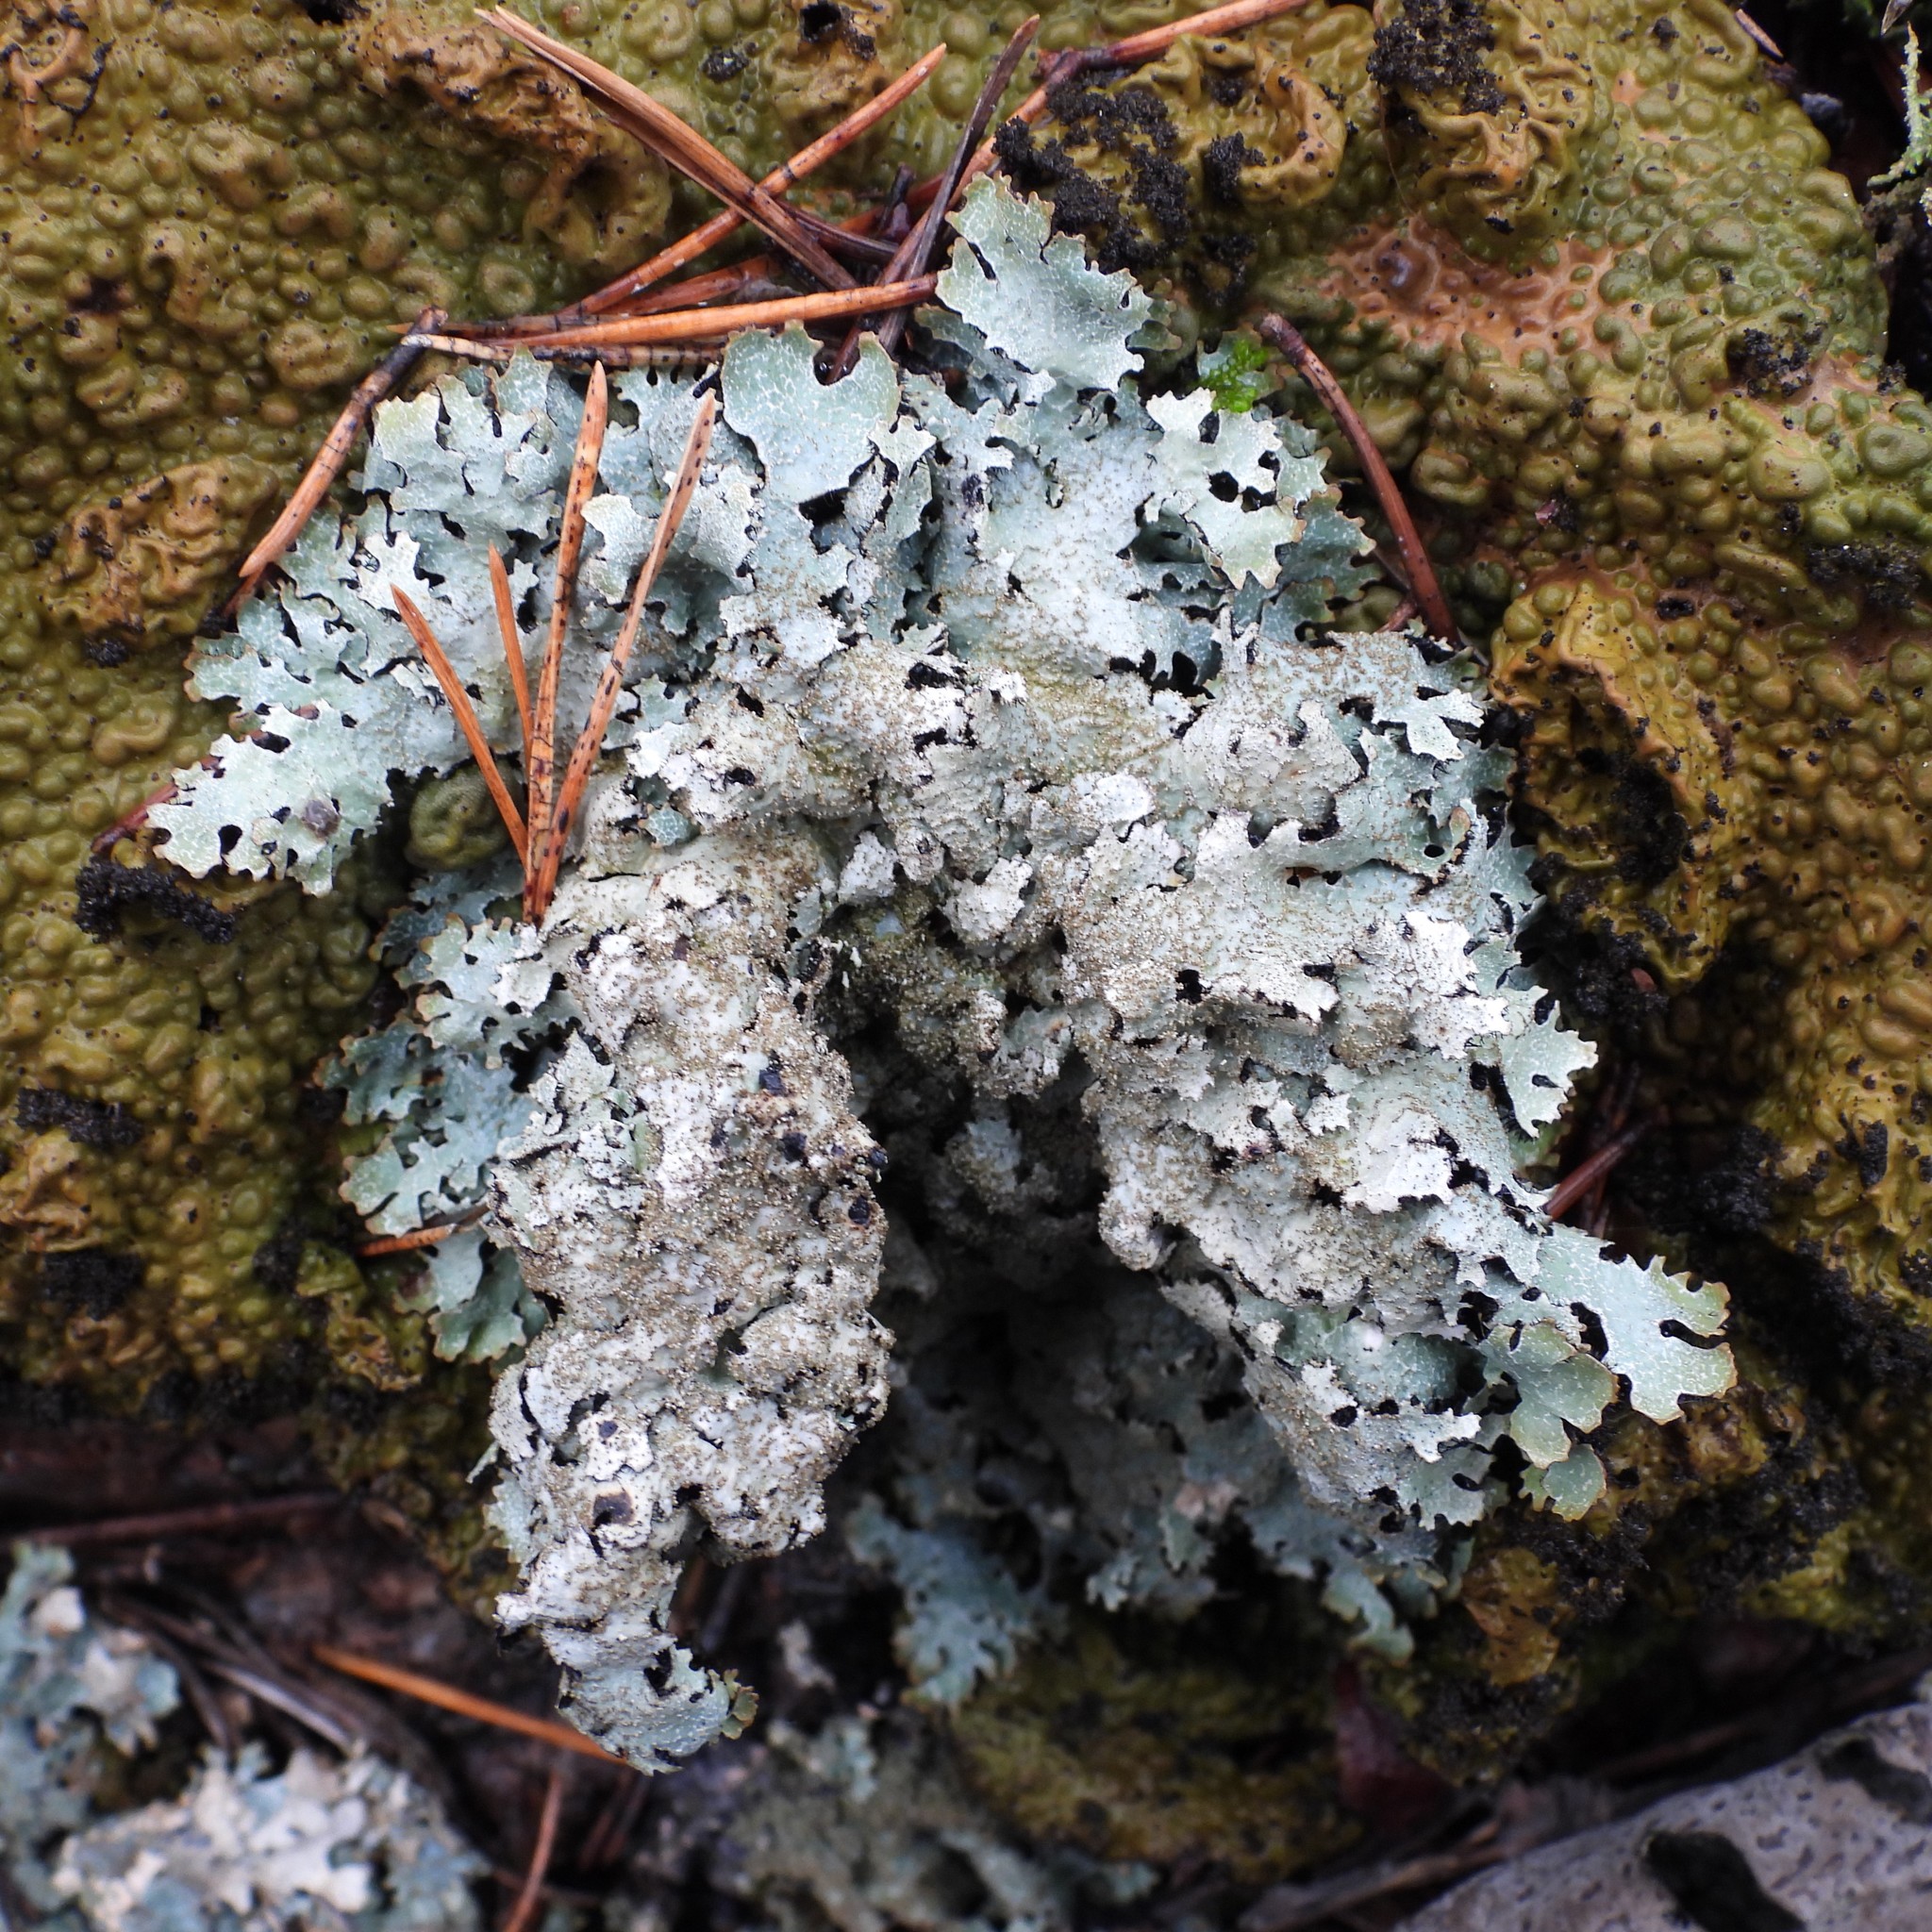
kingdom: Fungi
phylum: Ascomycota
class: Lecanoromycetes
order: Lecanorales
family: Parmeliaceae
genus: Parmelia
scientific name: Parmelia saxatilis
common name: Salted shield lichen
